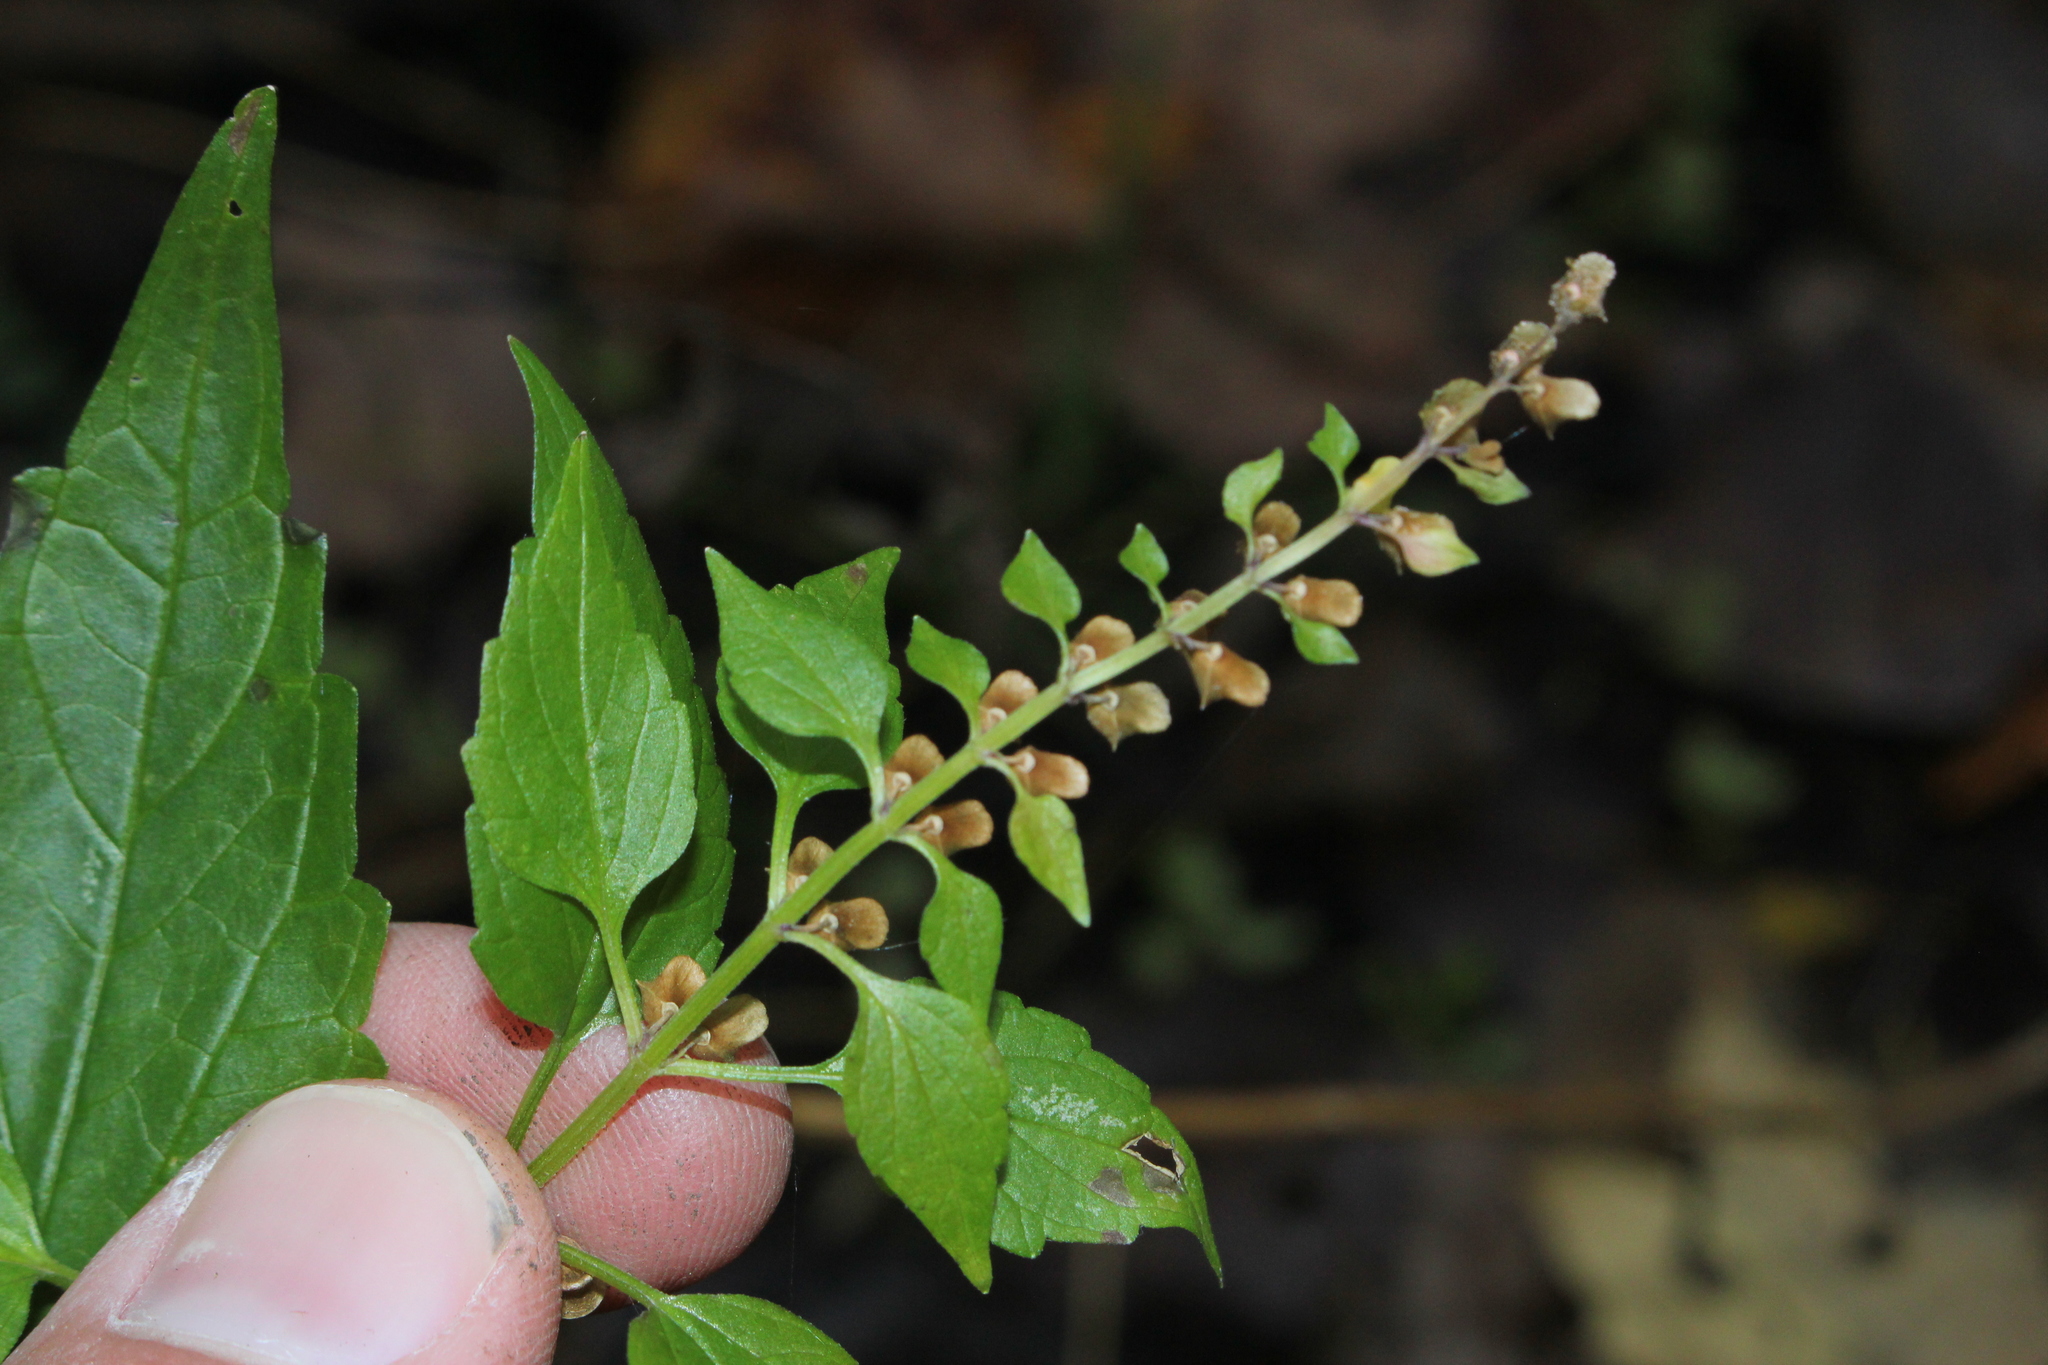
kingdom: Plantae
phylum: Tracheophyta
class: Magnoliopsida
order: Lamiales
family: Lamiaceae
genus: Scutellaria
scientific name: Scutellaria lateriflora
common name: Blue skullcap
